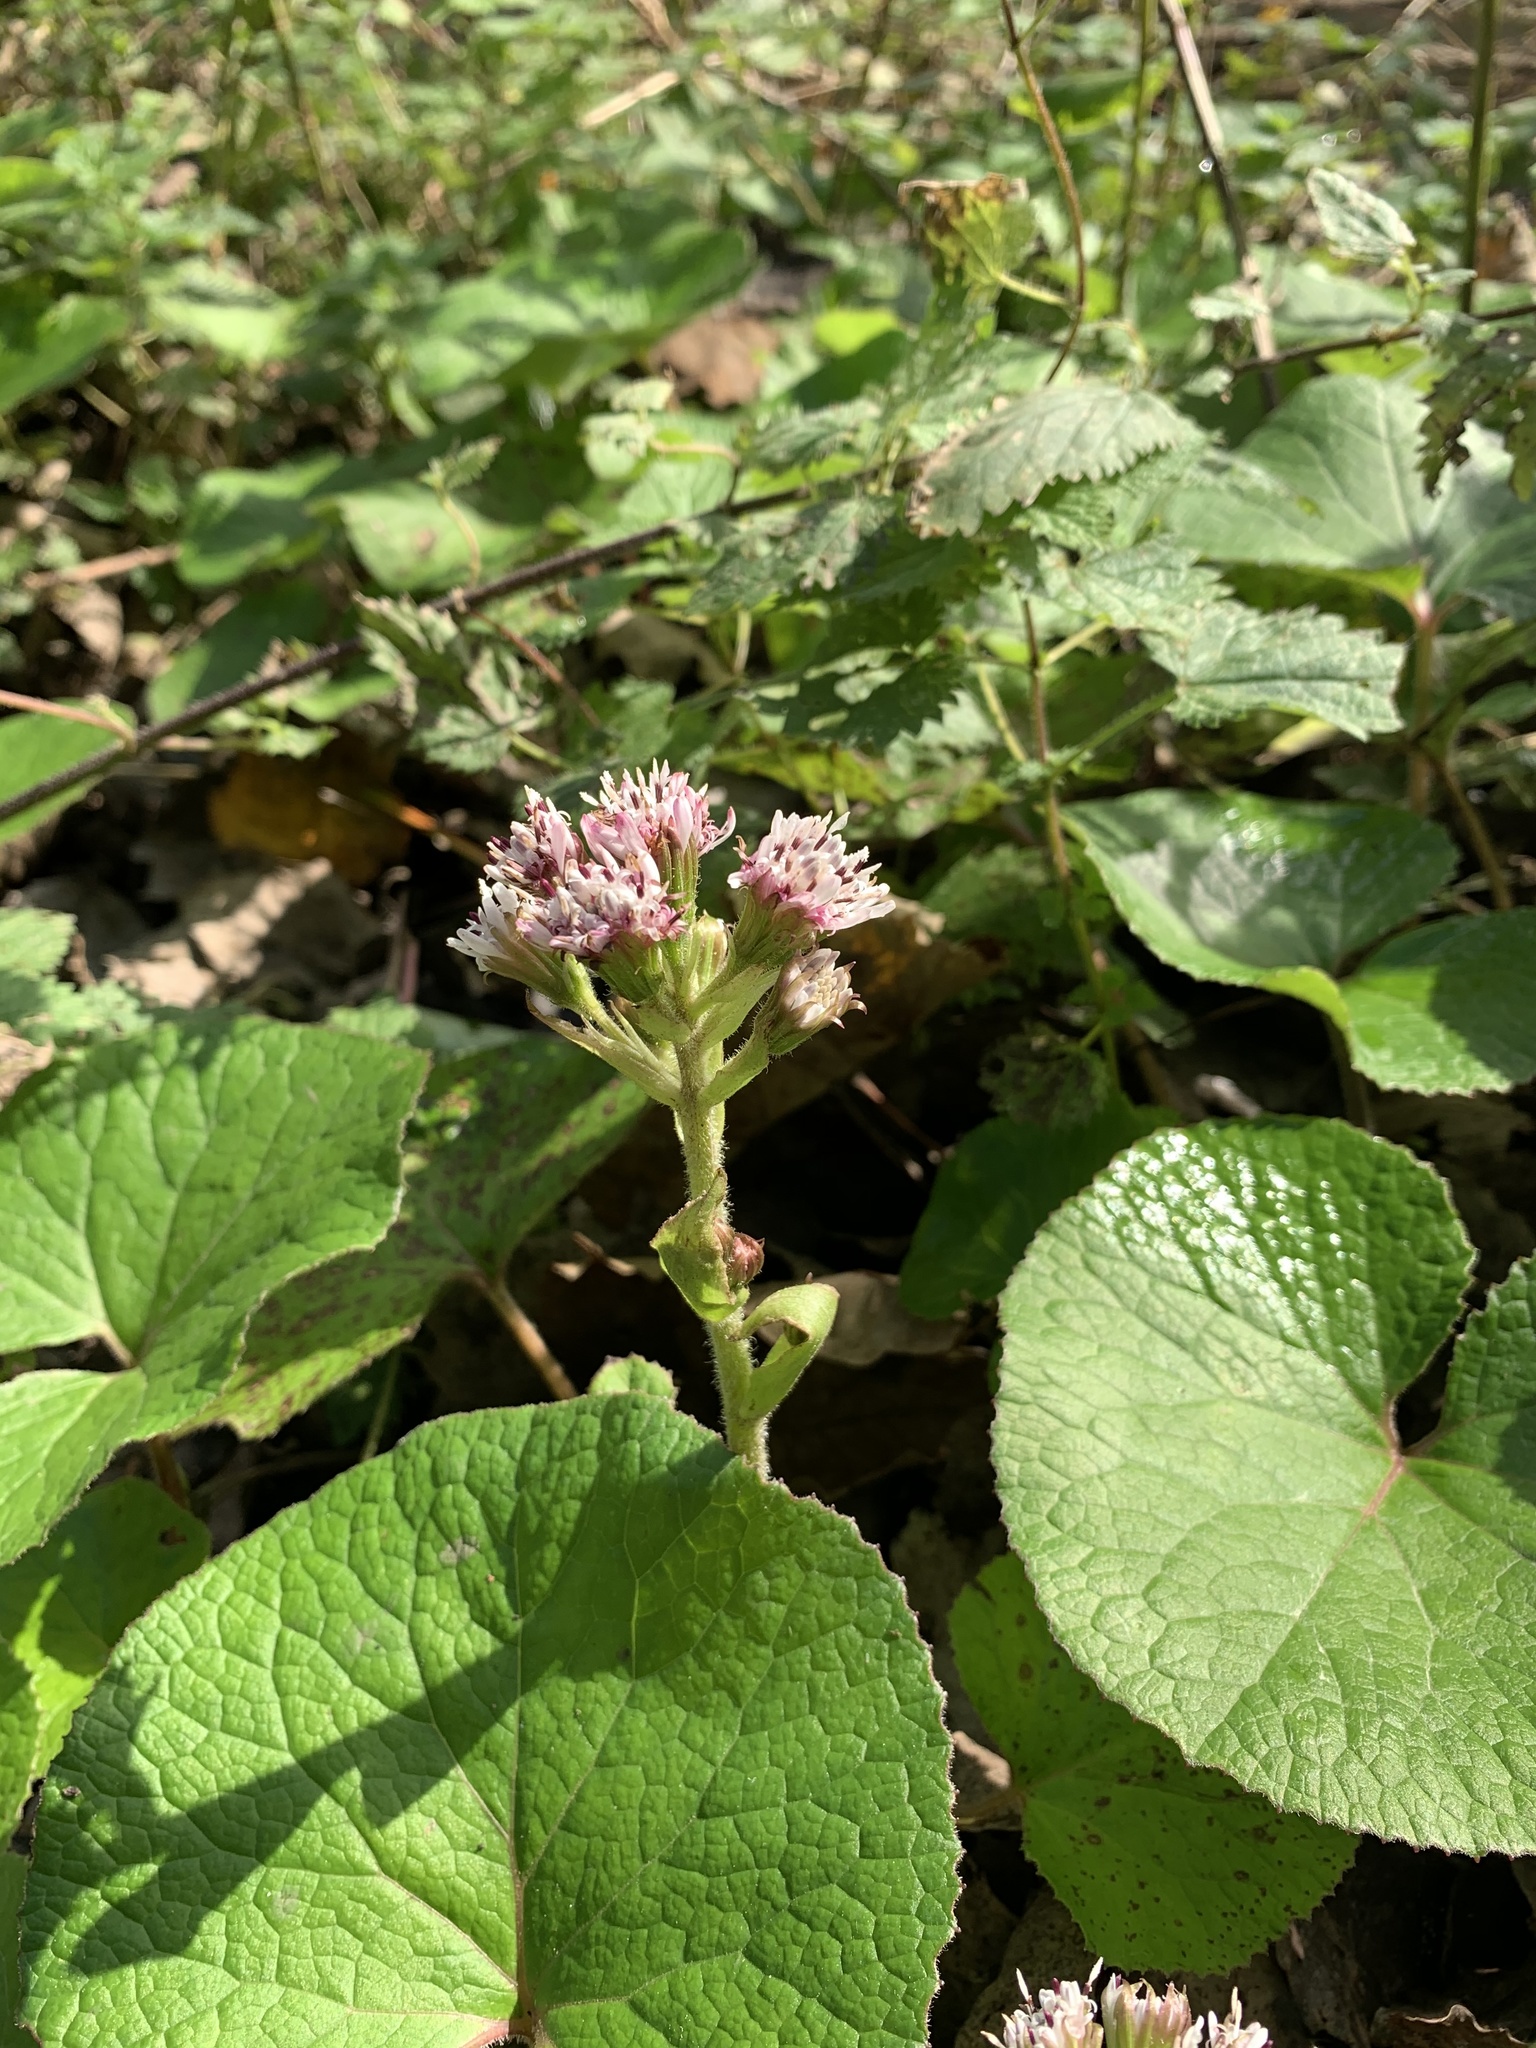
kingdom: Plantae
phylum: Tracheophyta
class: Magnoliopsida
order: Asterales
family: Asteraceae
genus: Petasites
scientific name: Petasites pyrenaicus
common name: Winter heliotrope
